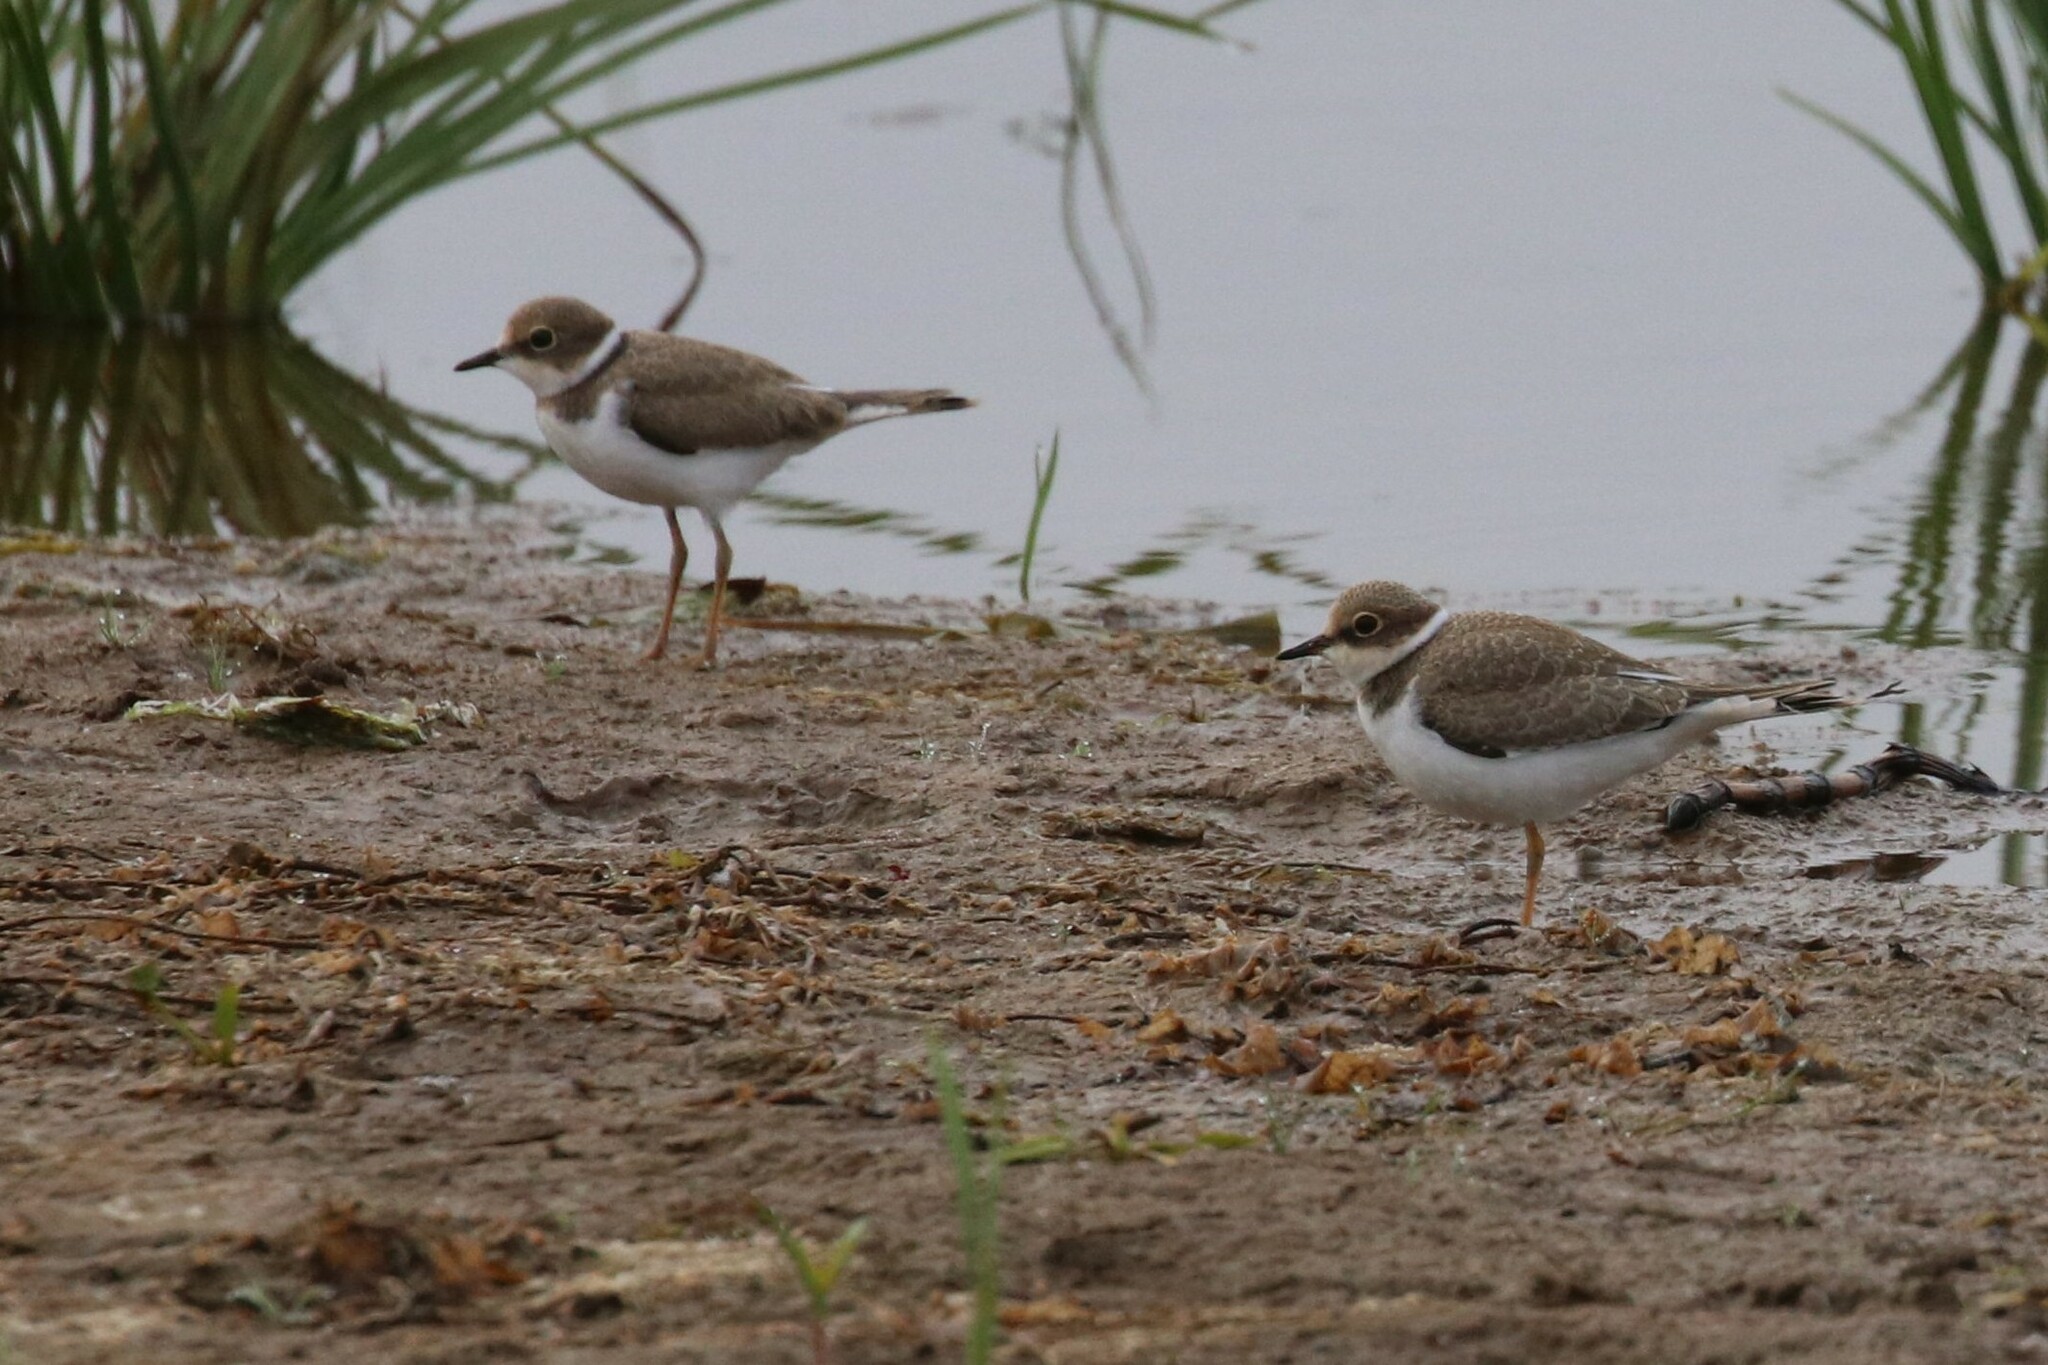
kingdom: Animalia
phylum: Chordata
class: Aves
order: Charadriiformes
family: Charadriidae
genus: Charadrius
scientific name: Charadrius dubius
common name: Little ringed plover
